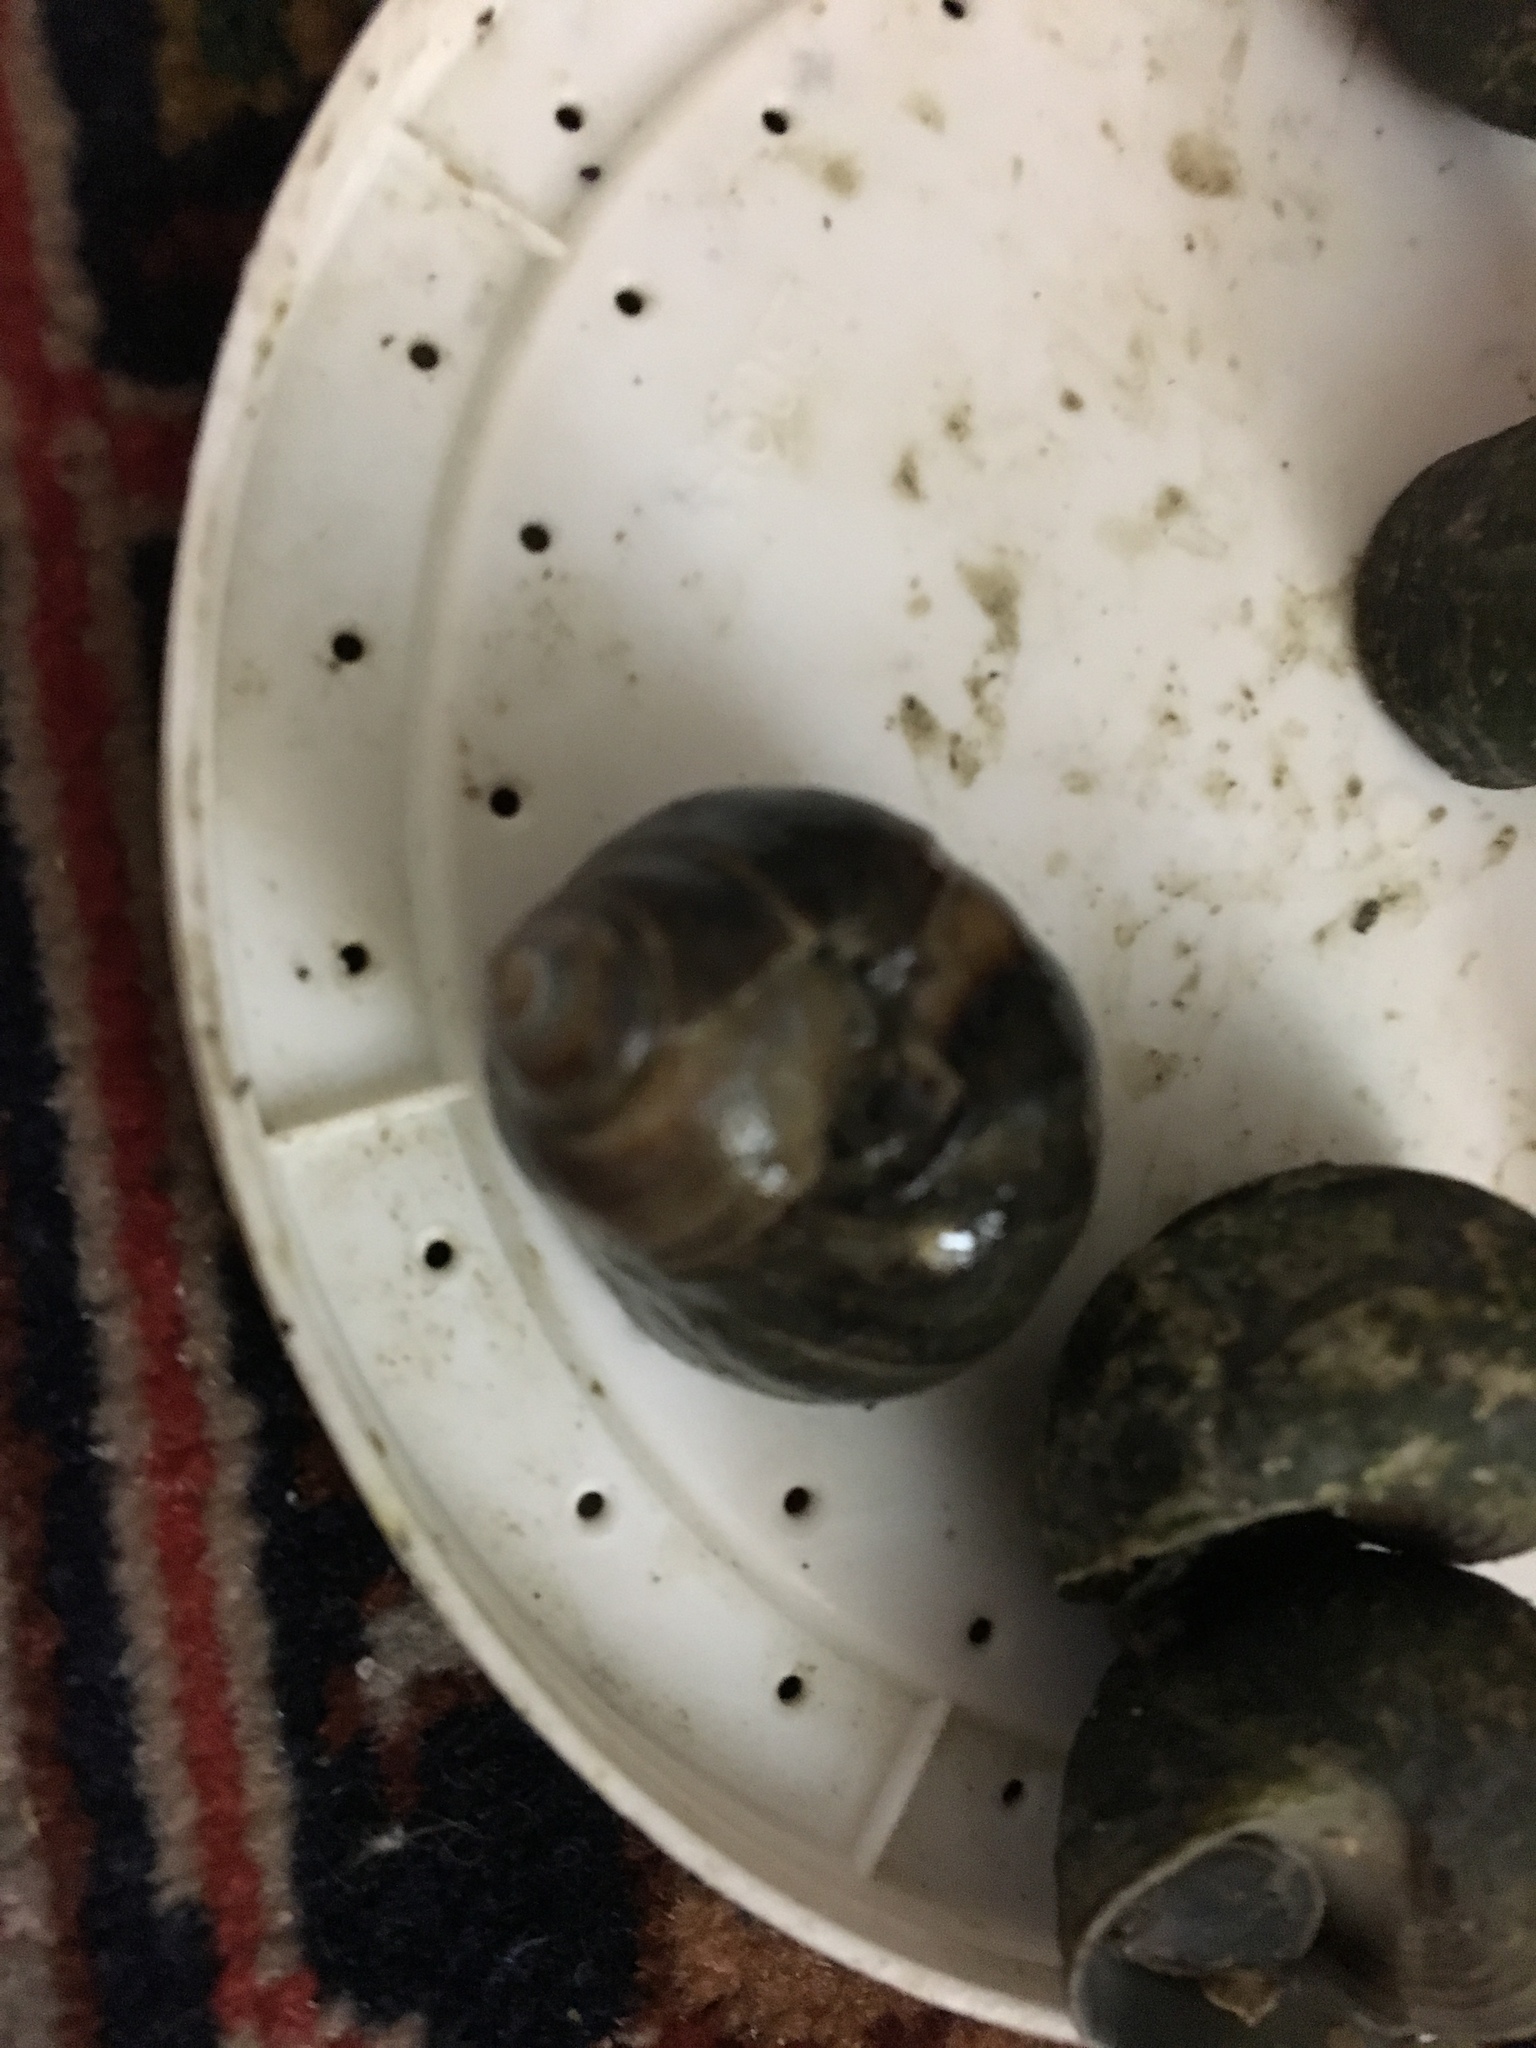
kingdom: Animalia
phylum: Mollusca
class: Gastropoda
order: Littorinimorpha
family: Littorinidae
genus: Littorina
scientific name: Littorina littorea
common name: Common periwinkle
